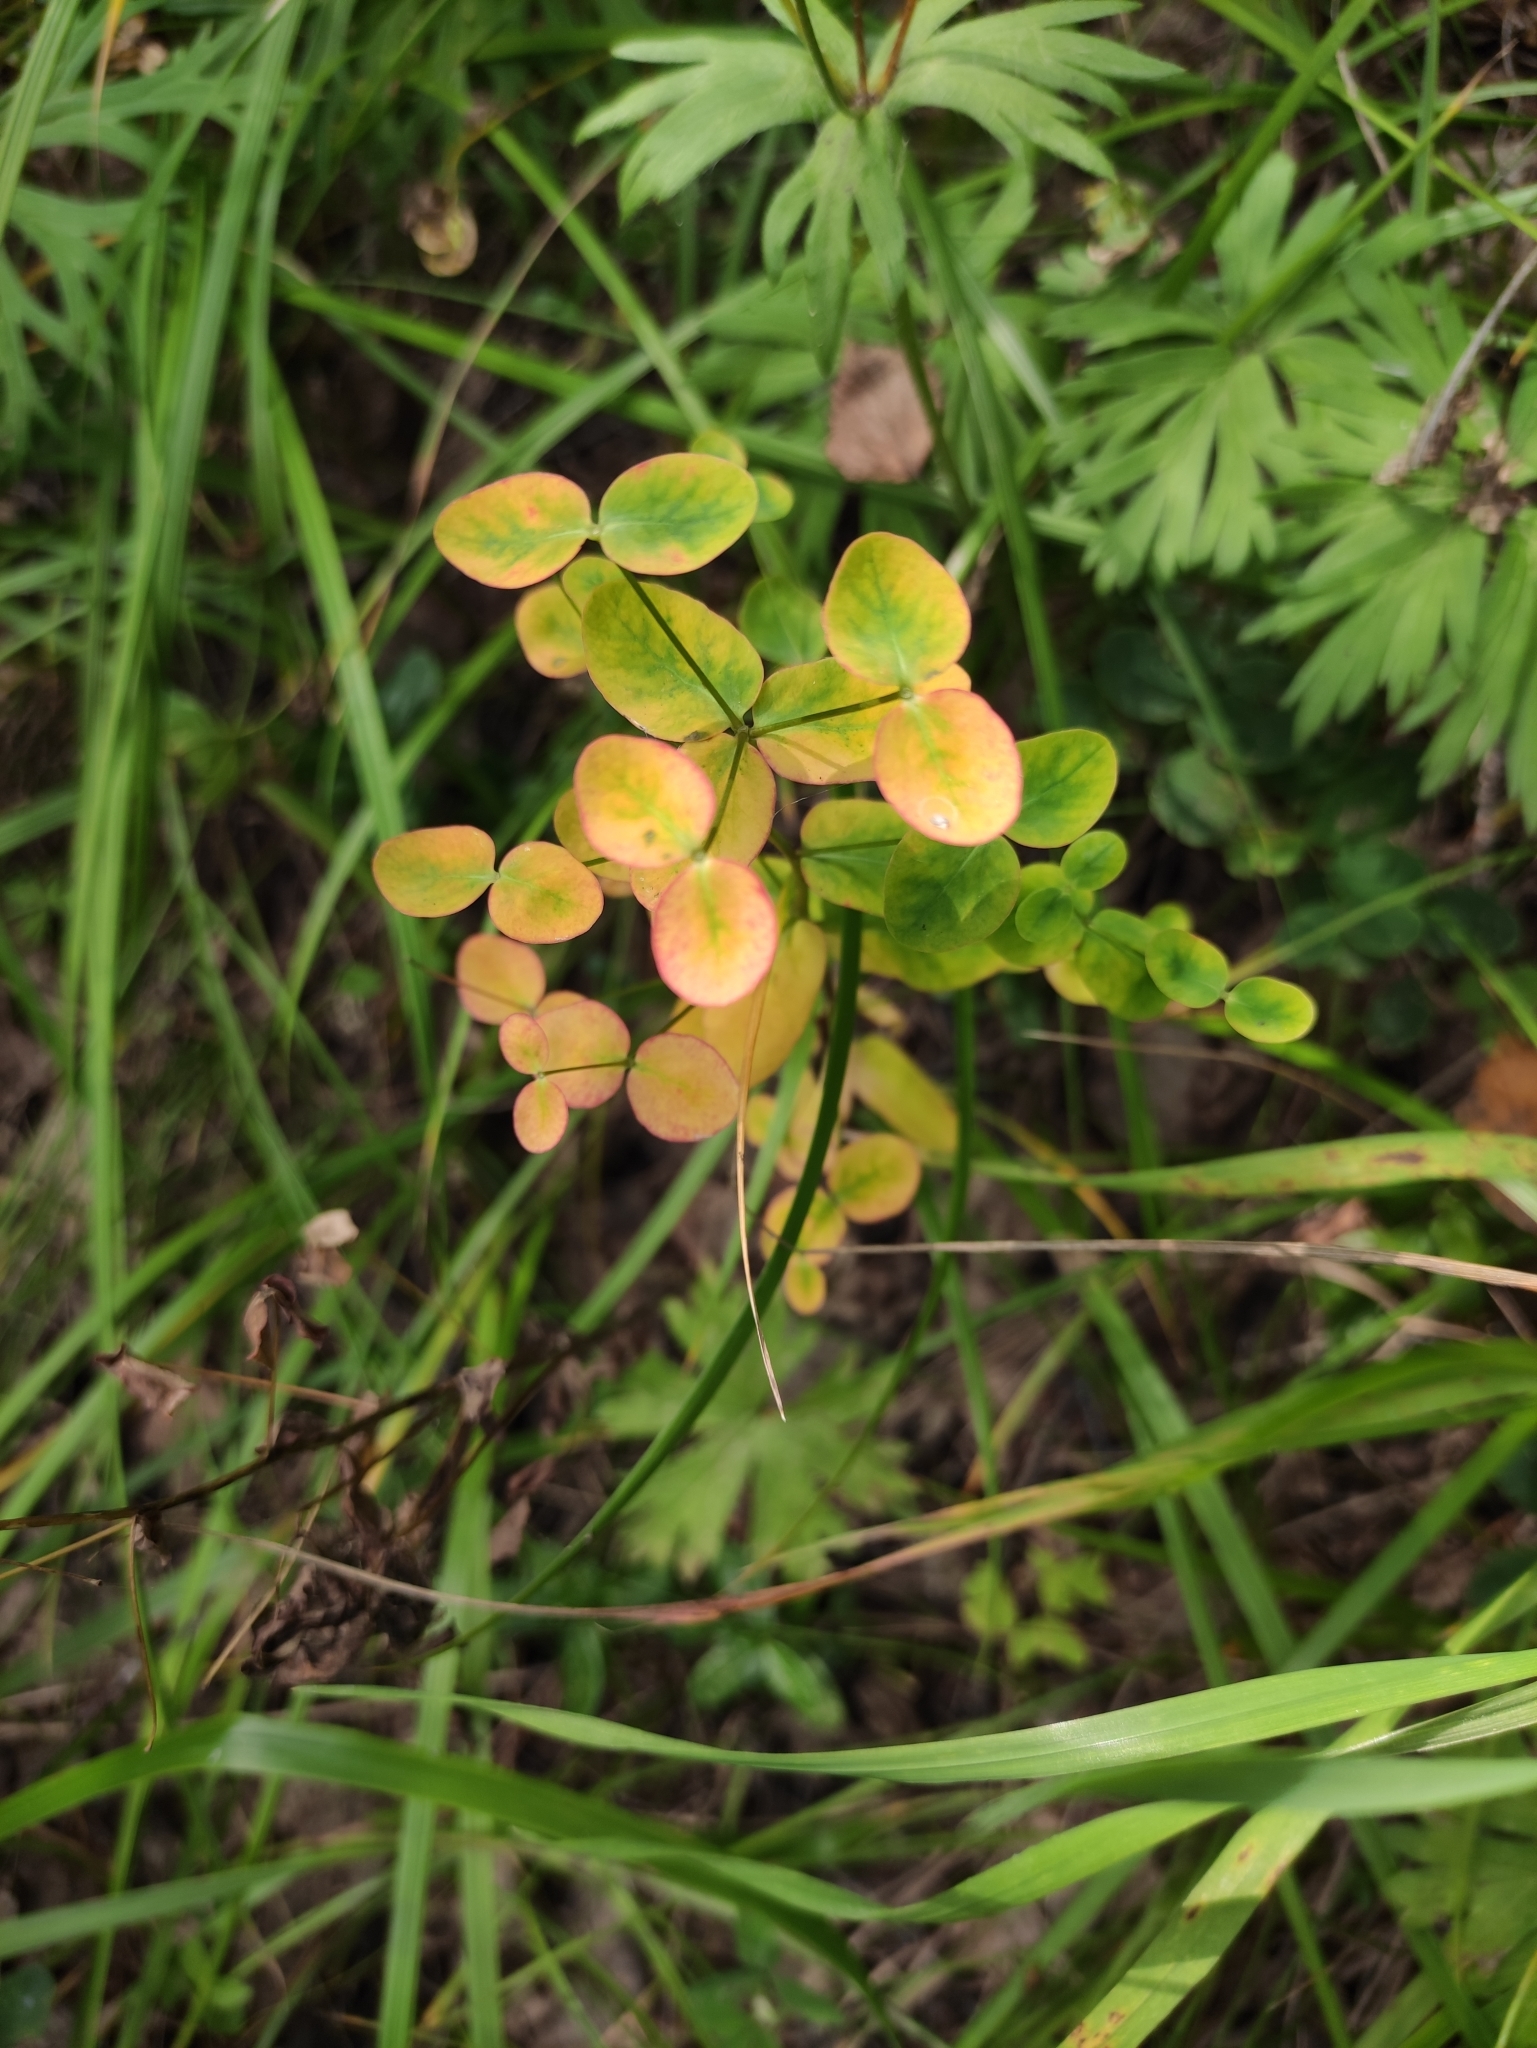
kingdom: Plantae
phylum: Tracheophyta
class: Magnoliopsida
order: Malpighiales
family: Euphorbiaceae
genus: Euphorbia
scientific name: Euphorbia jenisseiensis
